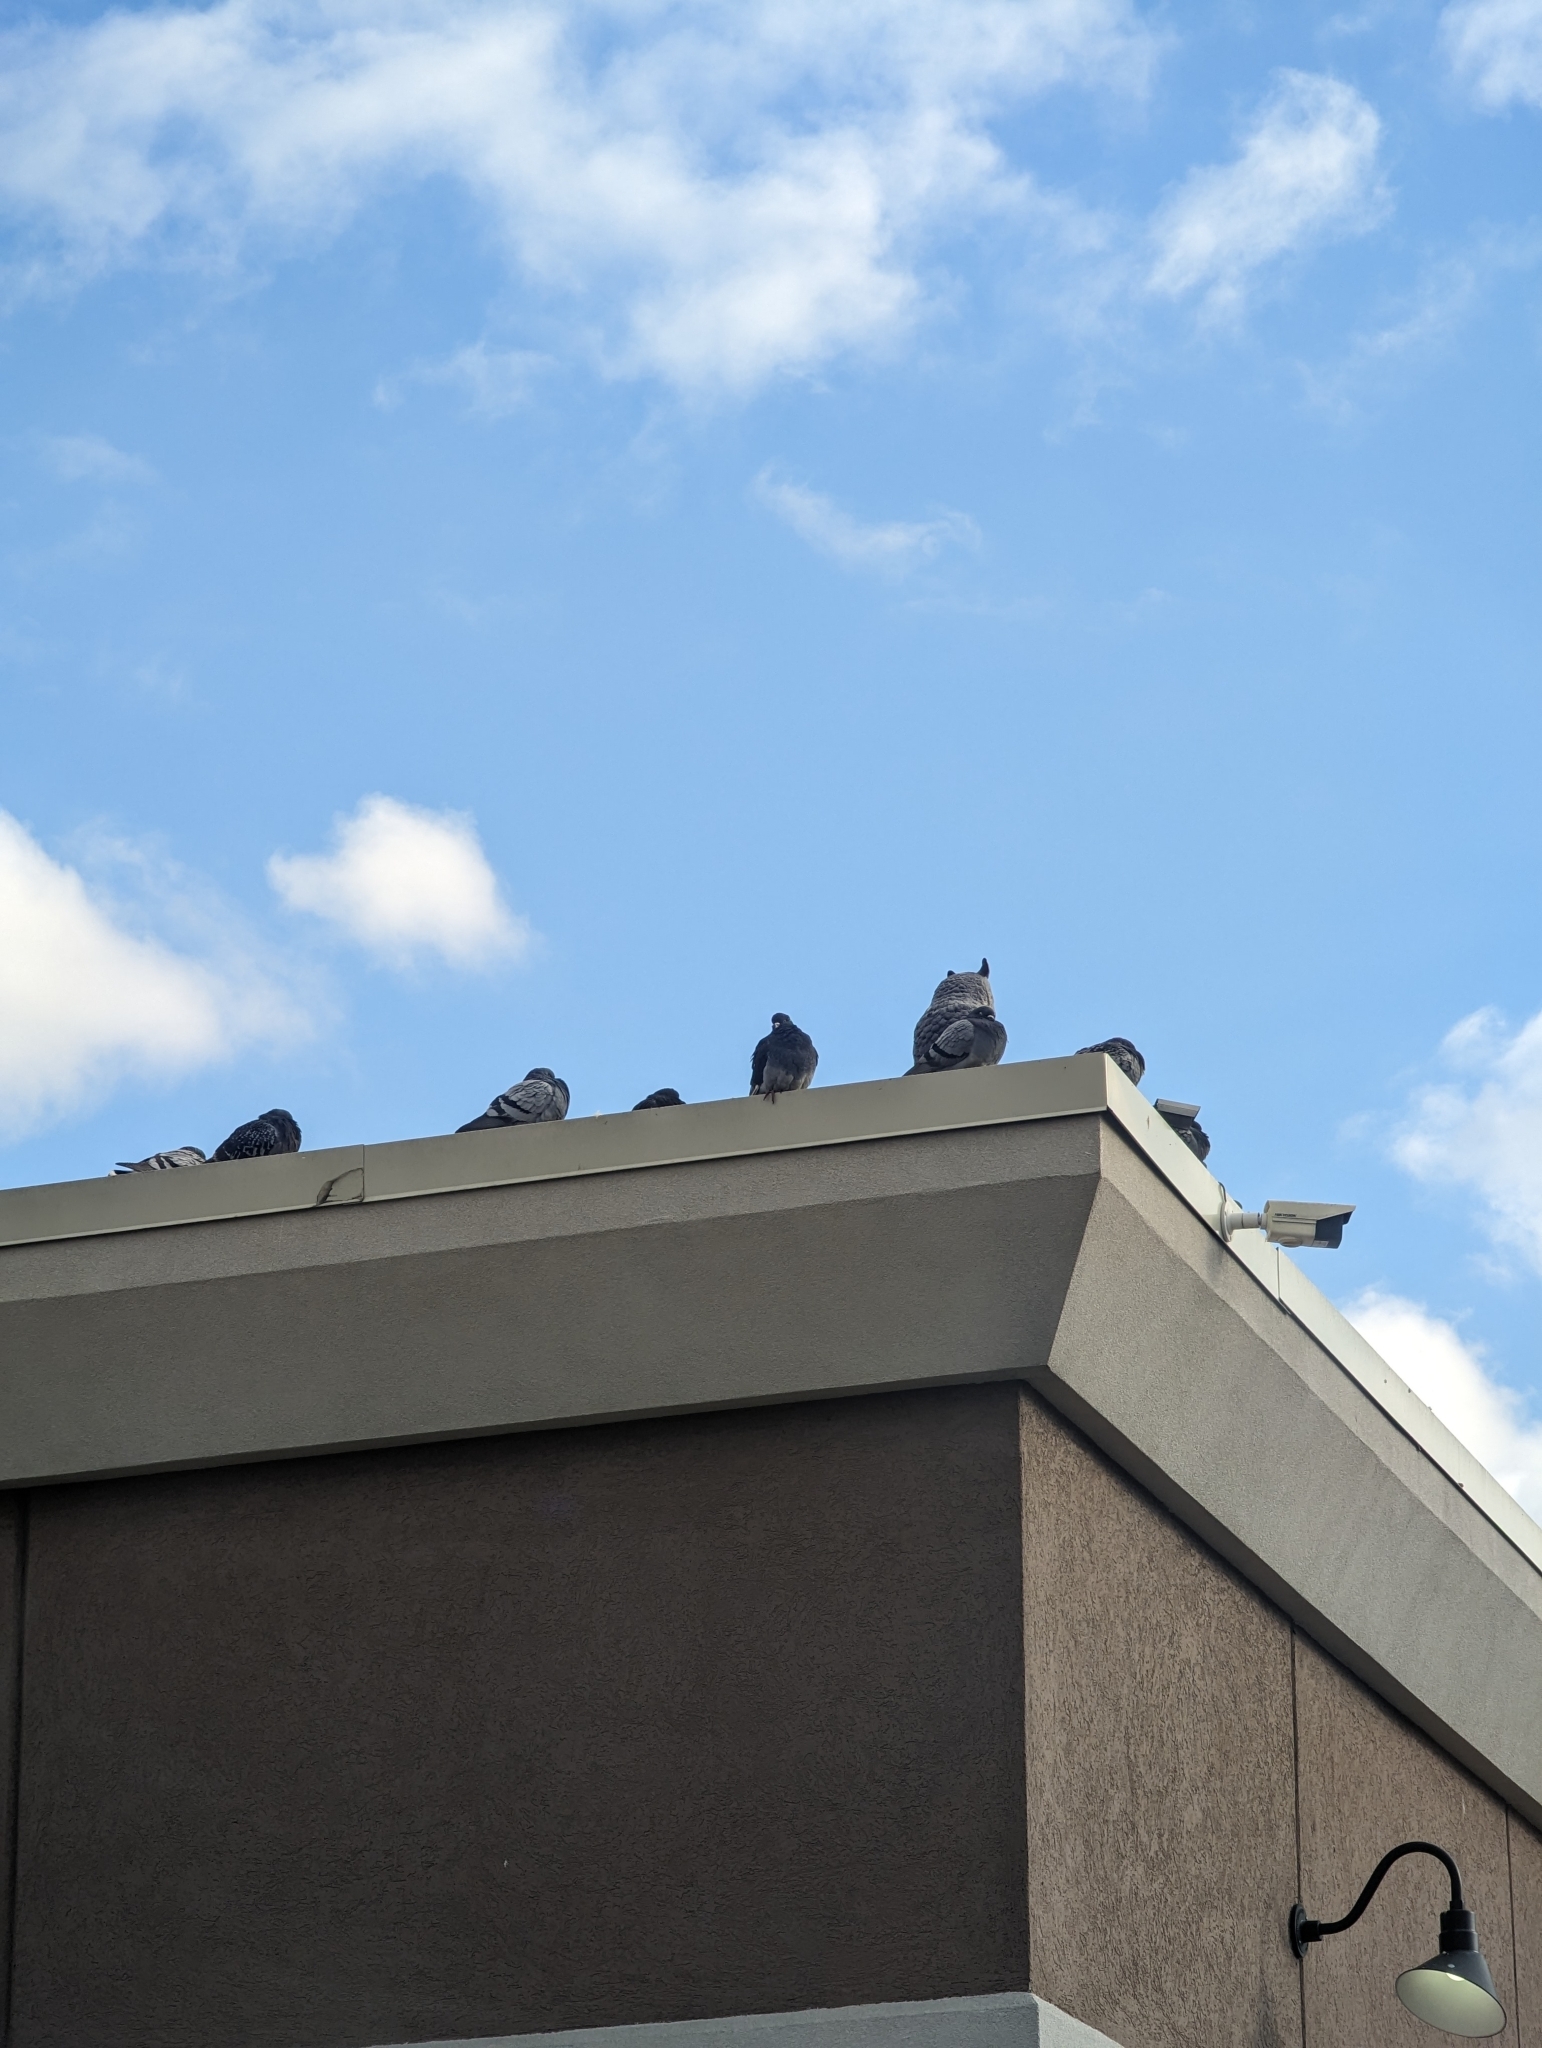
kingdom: Animalia
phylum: Chordata
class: Aves
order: Columbiformes
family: Columbidae
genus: Columba
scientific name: Columba livia
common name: Rock pigeon
